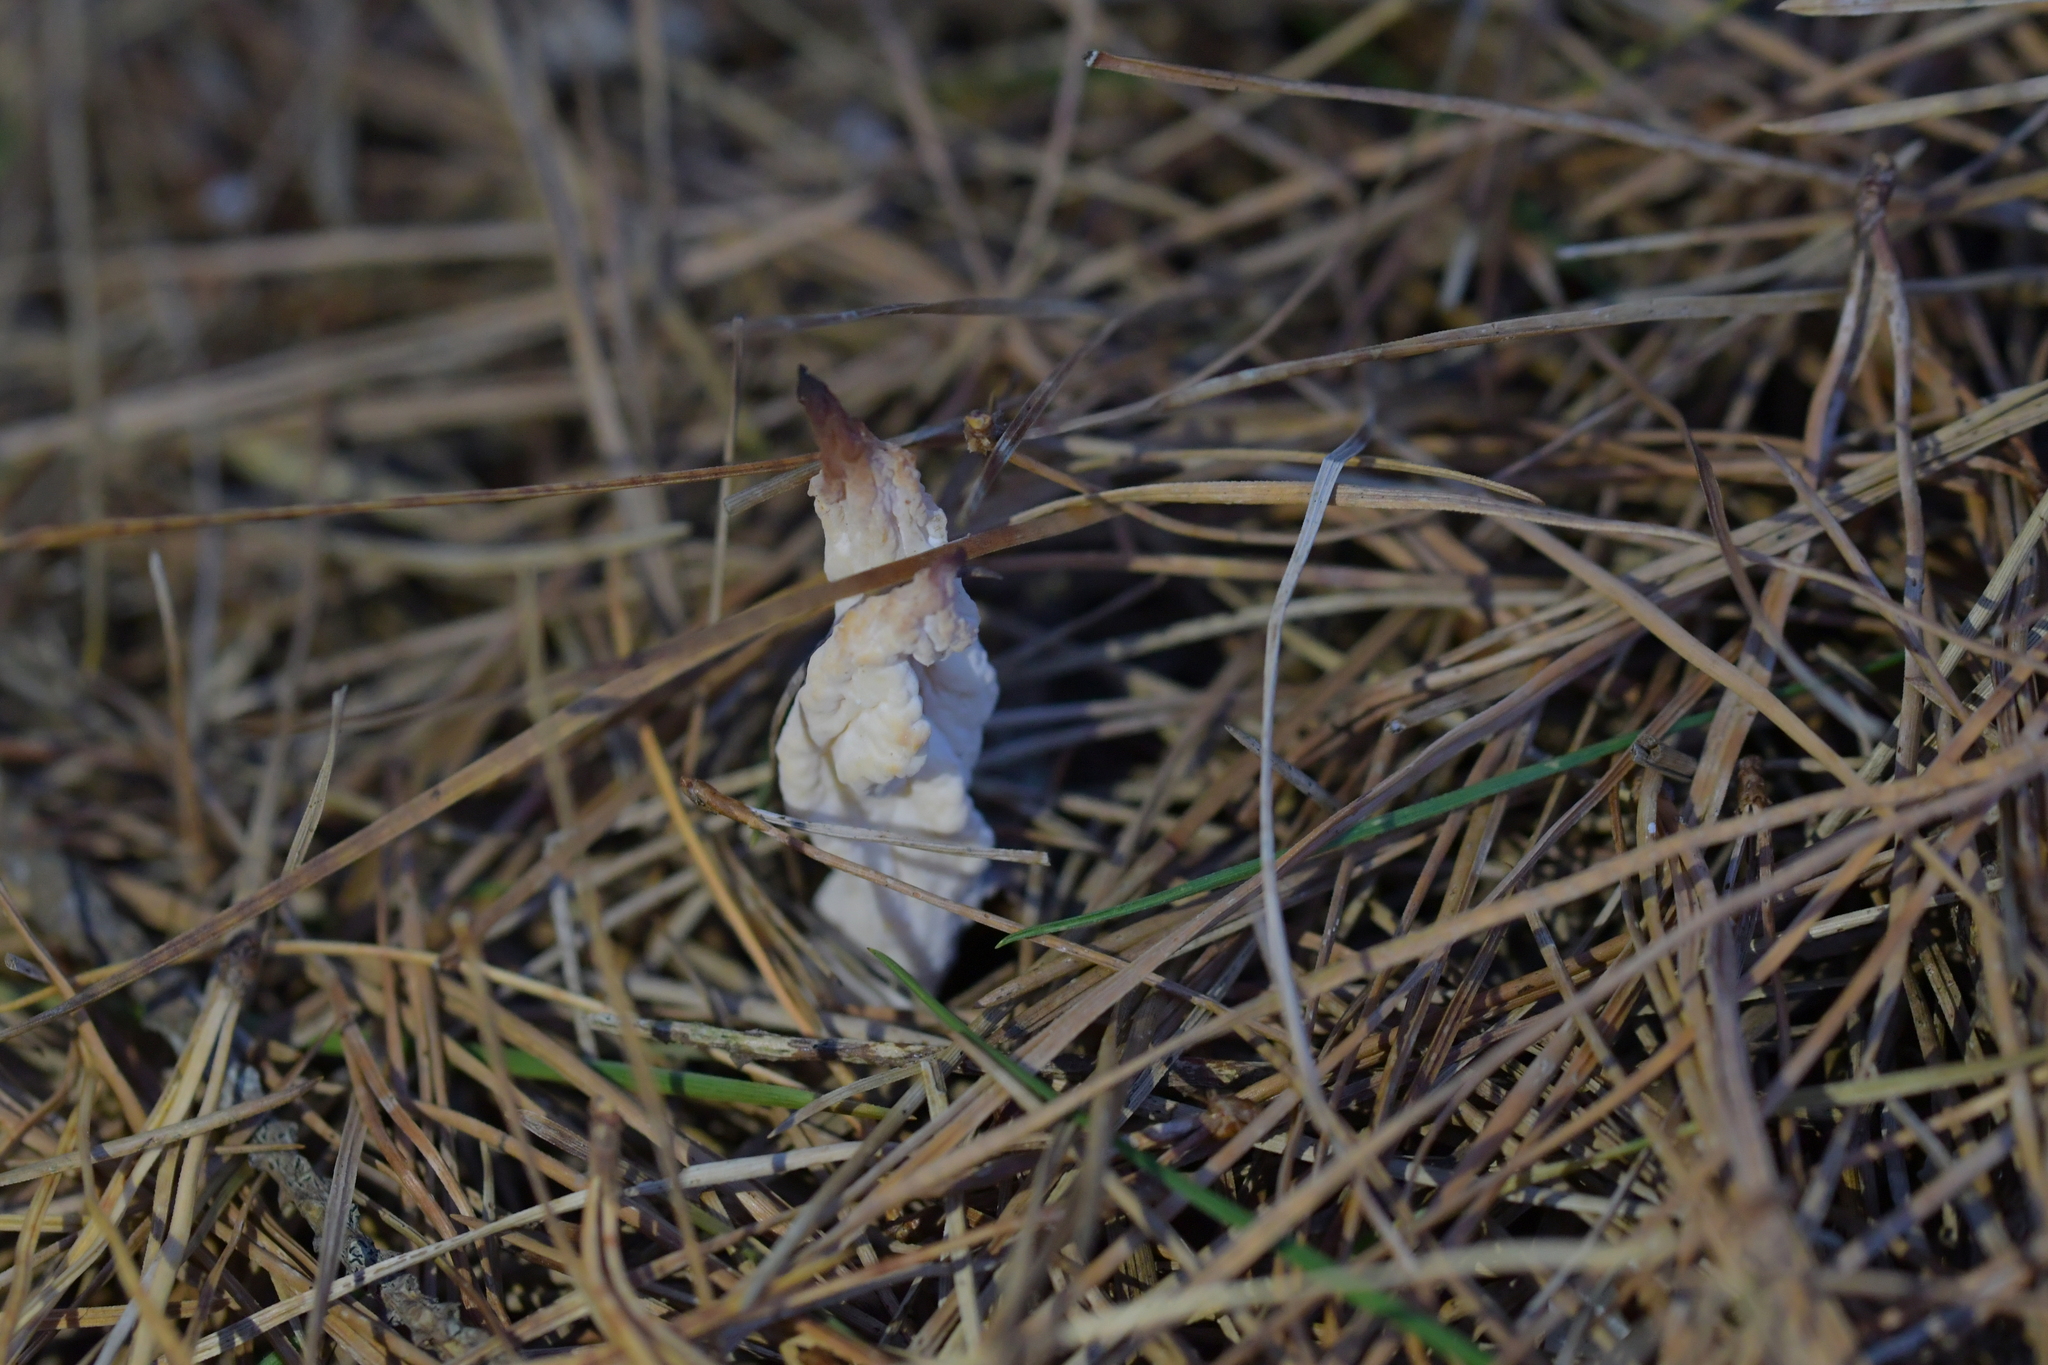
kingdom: Fungi
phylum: Basidiomycota
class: Agaricomycetes
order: Cantharellales
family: Hydnaceae
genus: Clavulina
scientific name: Clavulina rugosa
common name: Wrinkled club
